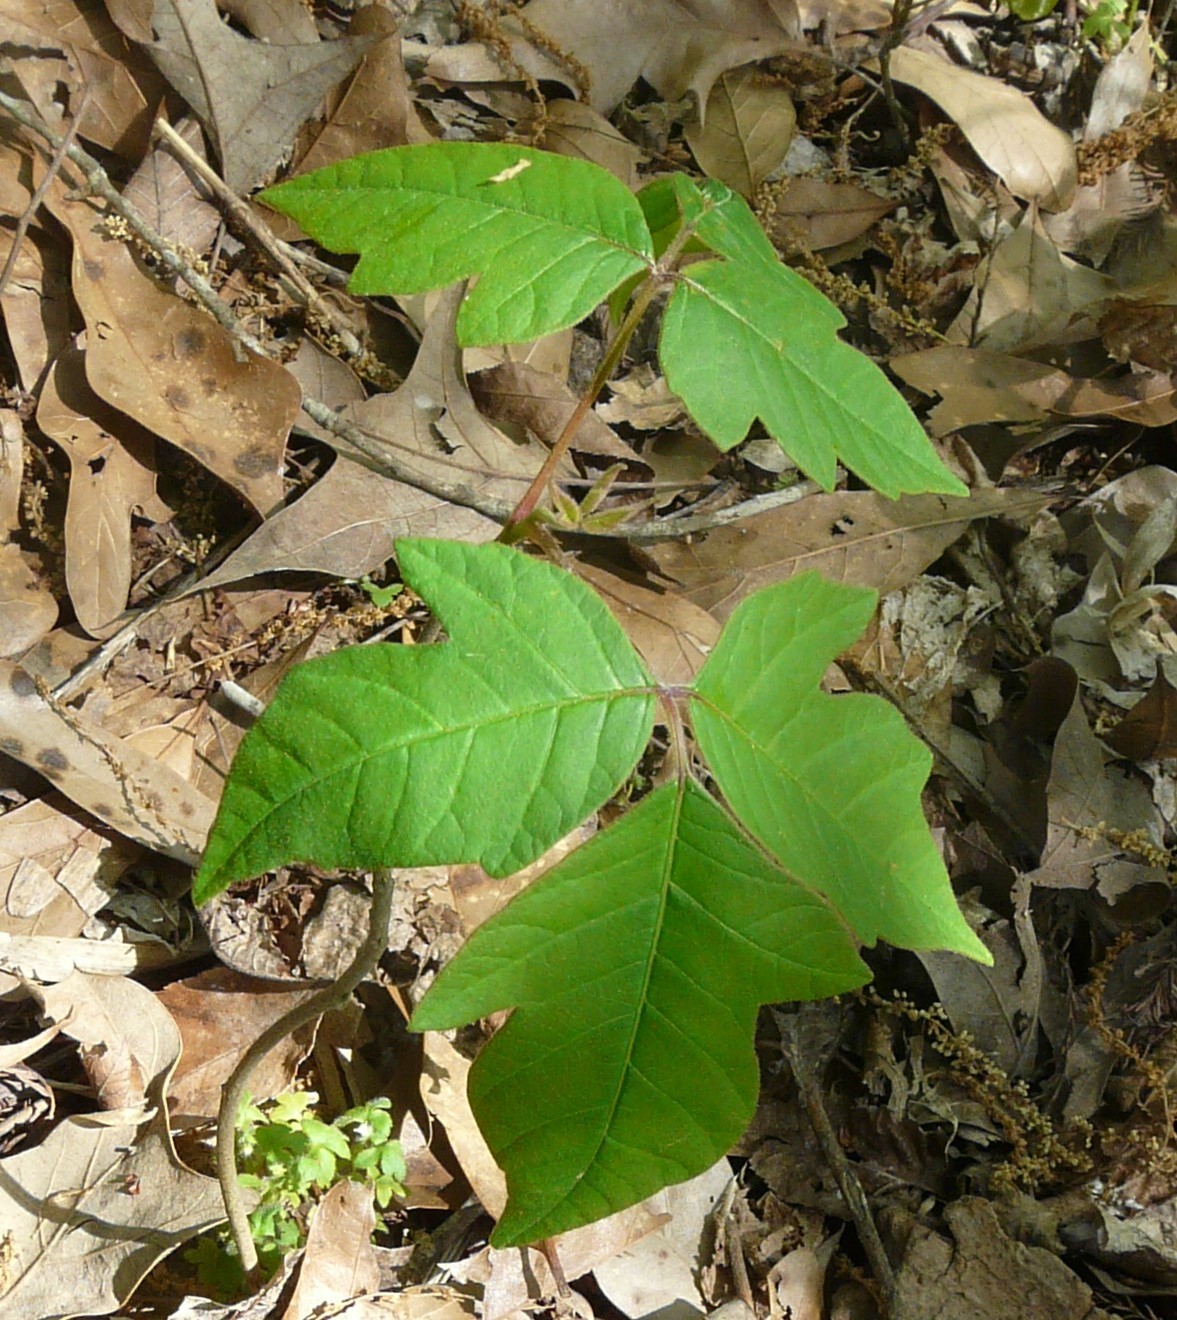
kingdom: Plantae
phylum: Tracheophyta
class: Magnoliopsida
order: Sapindales
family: Anacardiaceae
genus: Toxicodendron
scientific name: Toxicodendron radicans
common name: Poison ivy
